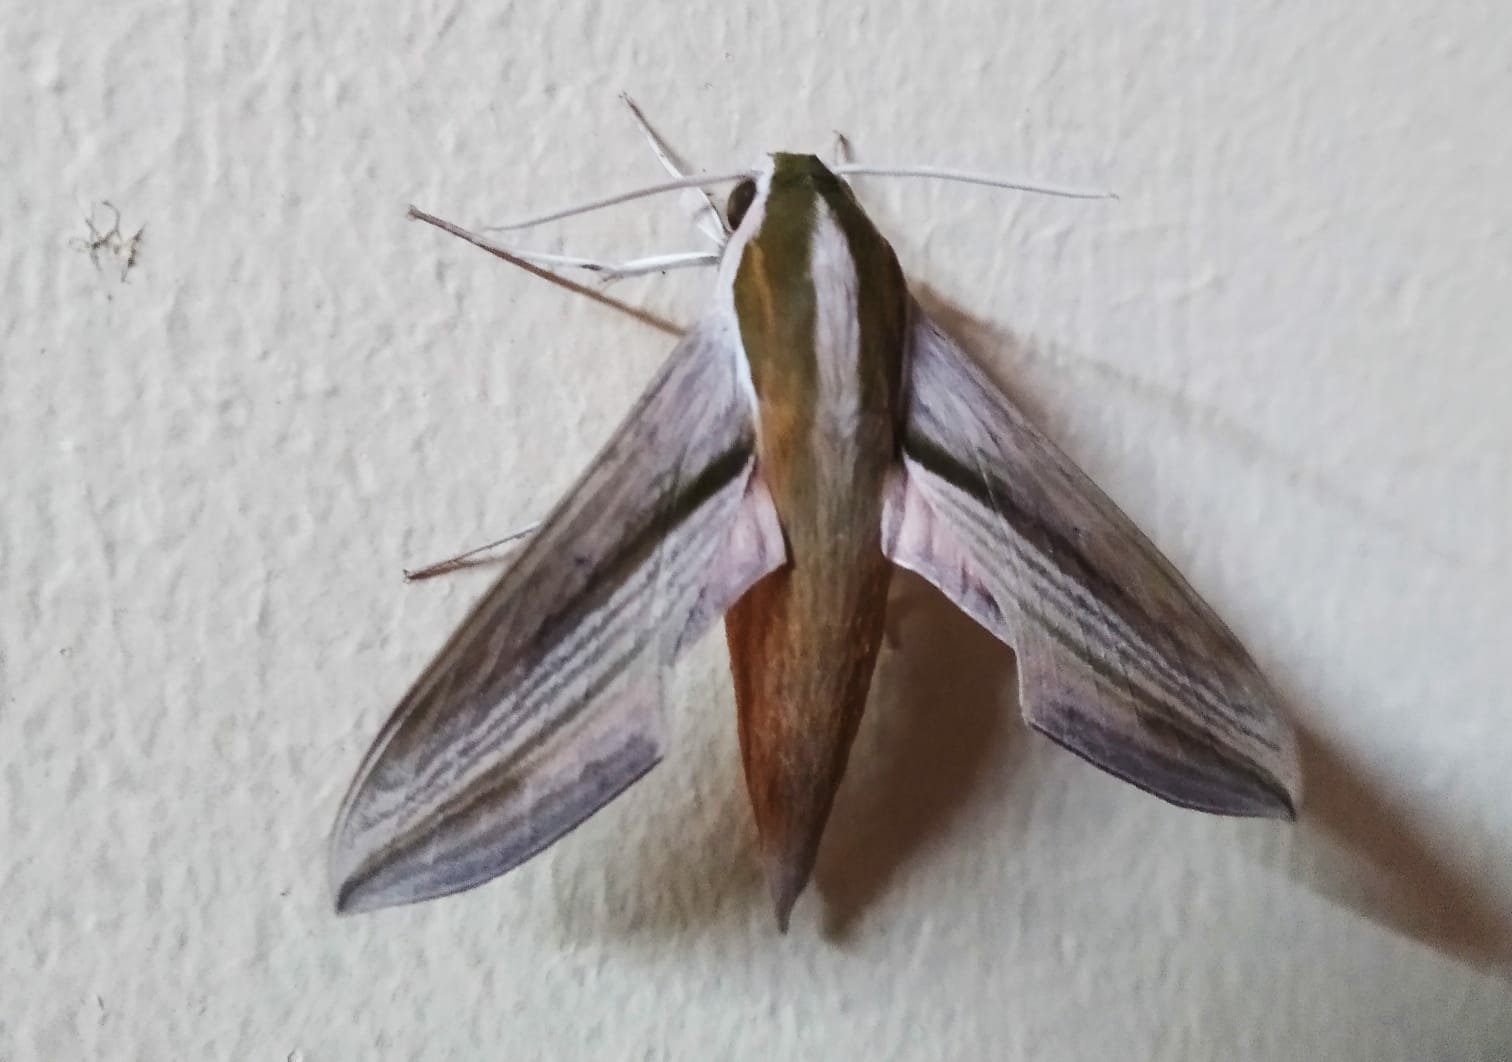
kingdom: Animalia
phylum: Arthropoda
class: Insecta
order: Lepidoptera
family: Sphingidae
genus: Hippotion
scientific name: Hippotion rosetta
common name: Vine hawk moth
